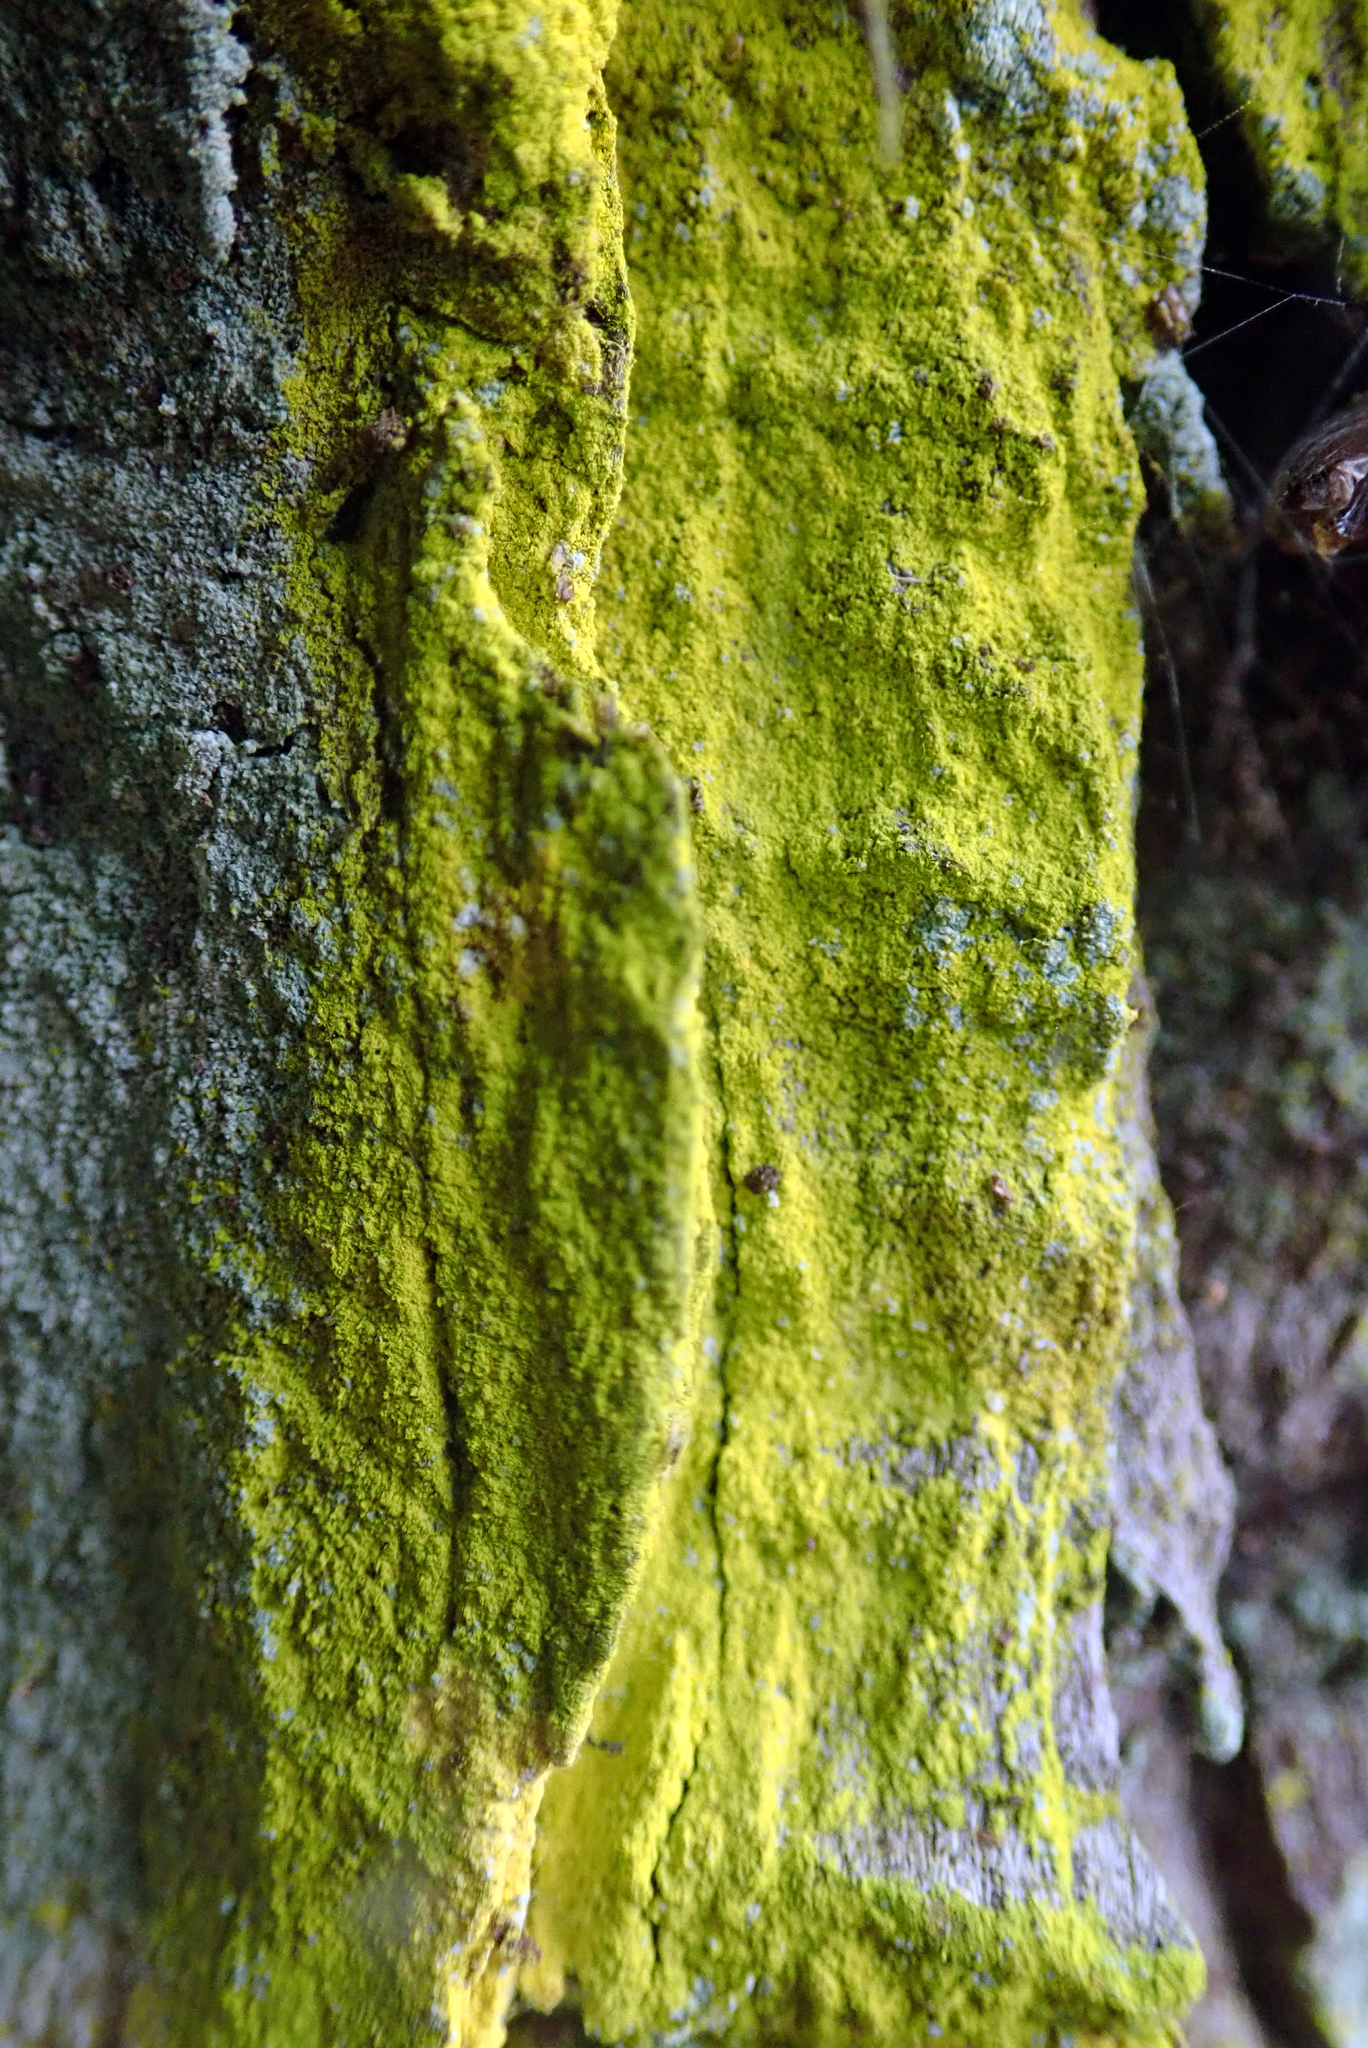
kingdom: Fungi
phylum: Ascomycota
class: Arthoniomycetes
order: Arthoniales
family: Chrysotrichaceae
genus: Chrysothrix
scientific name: Chrysothrix xanthina
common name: Common gold-dust
